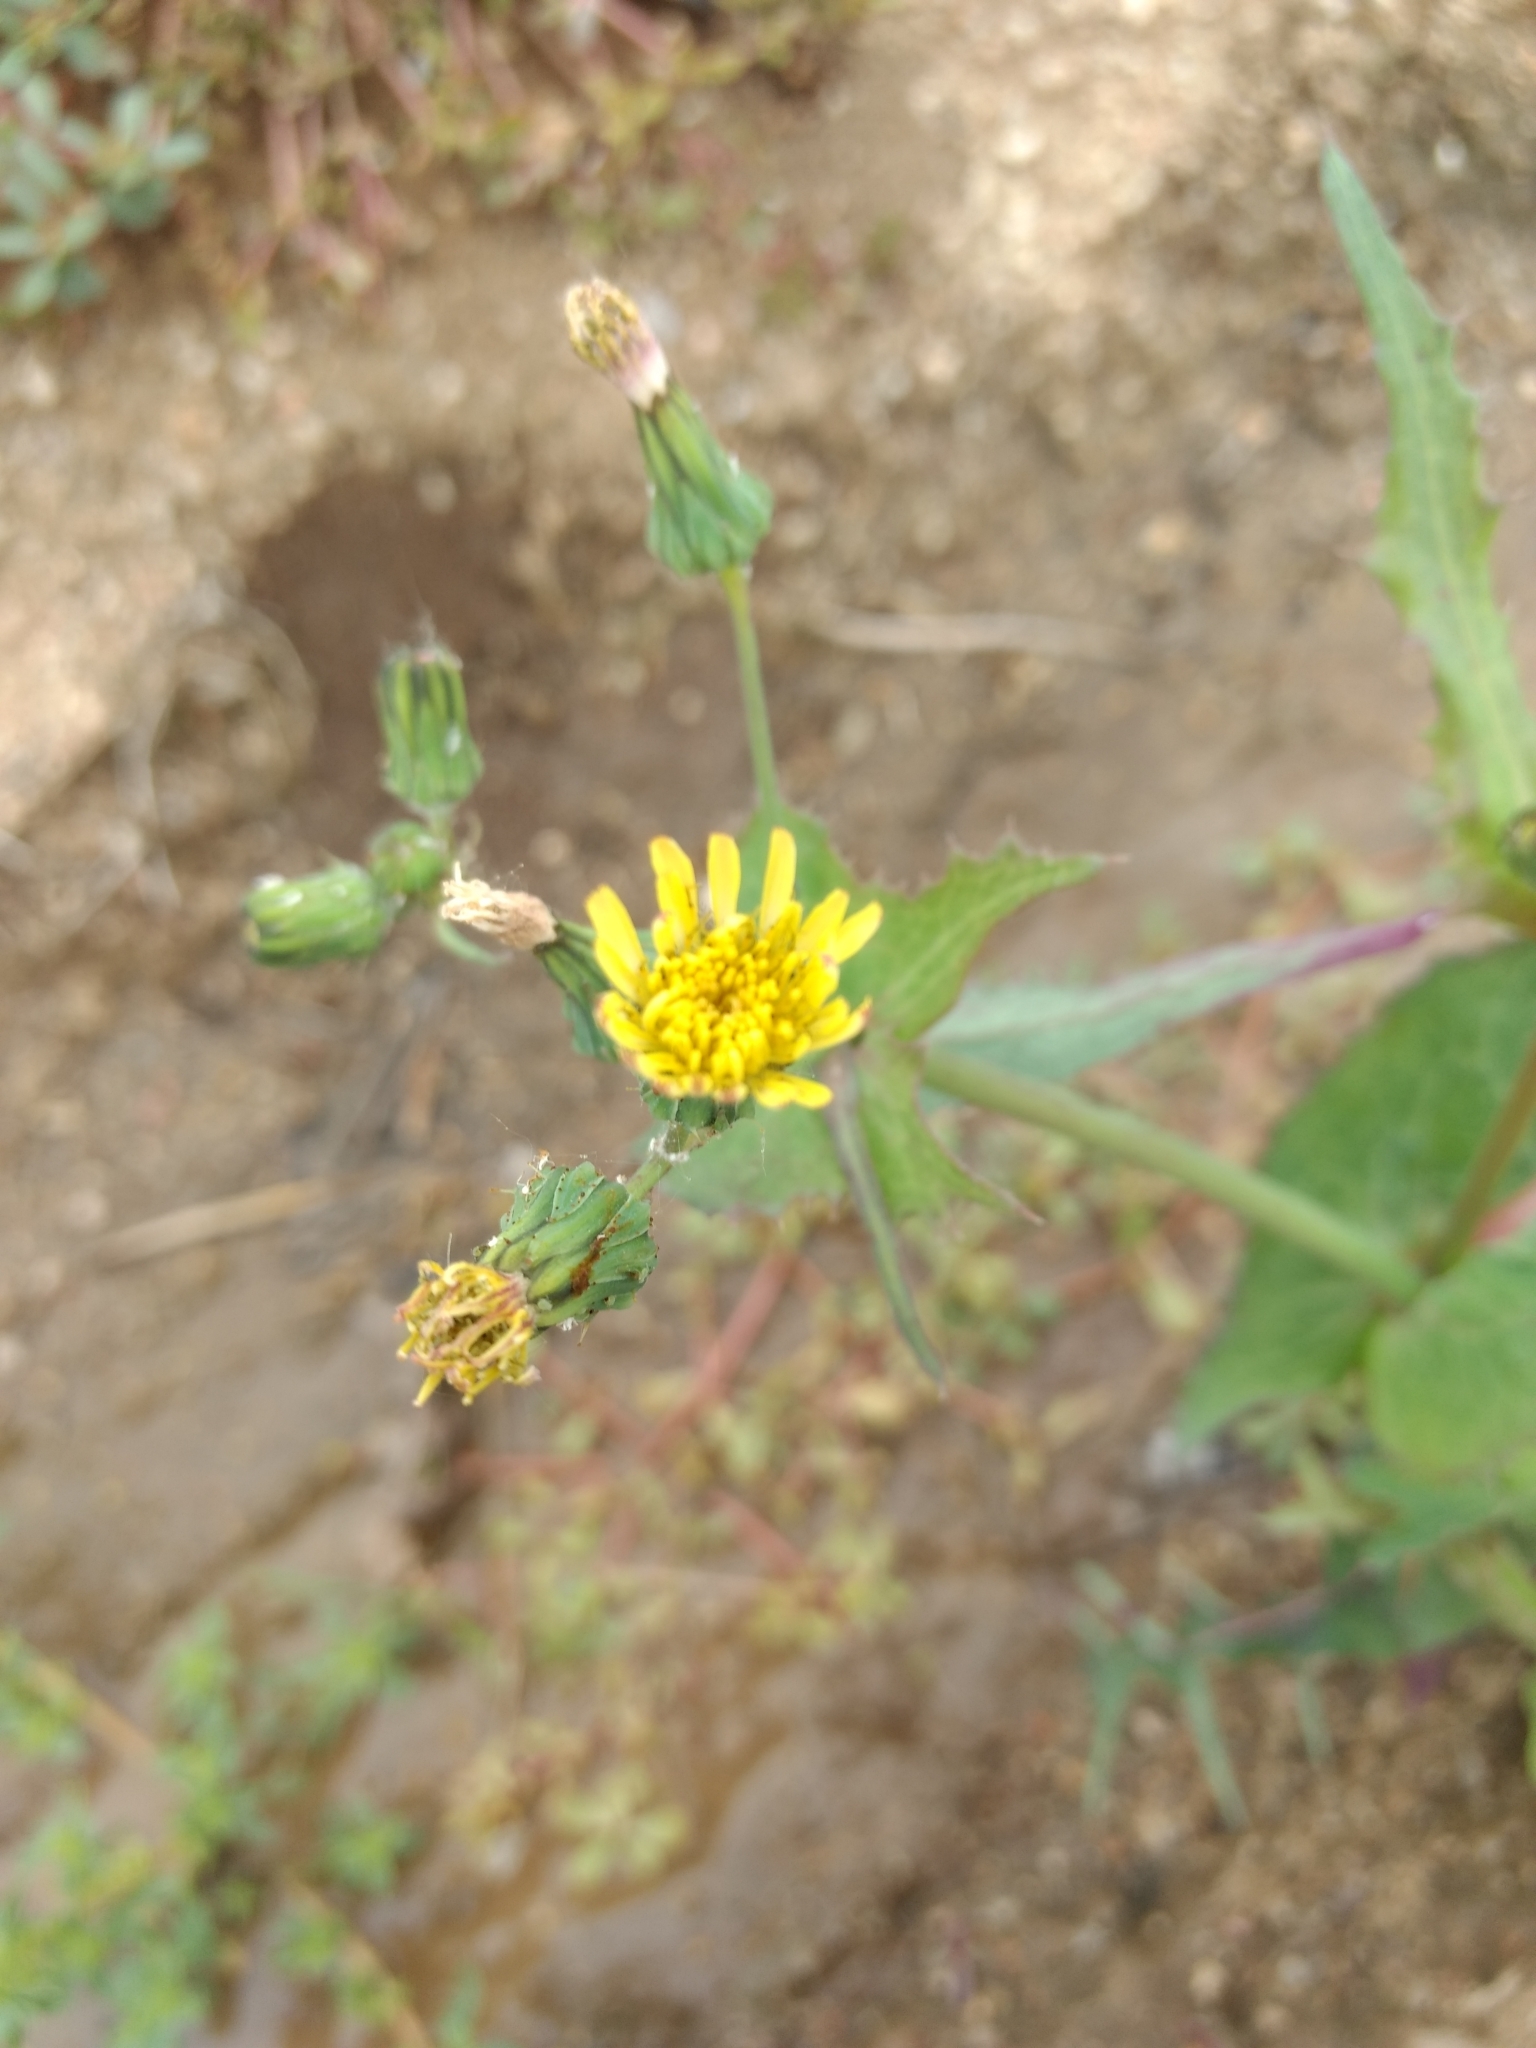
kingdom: Plantae
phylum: Tracheophyta
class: Magnoliopsida
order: Asterales
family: Asteraceae
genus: Sonchus
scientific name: Sonchus oleraceus
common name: Common sowthistle
